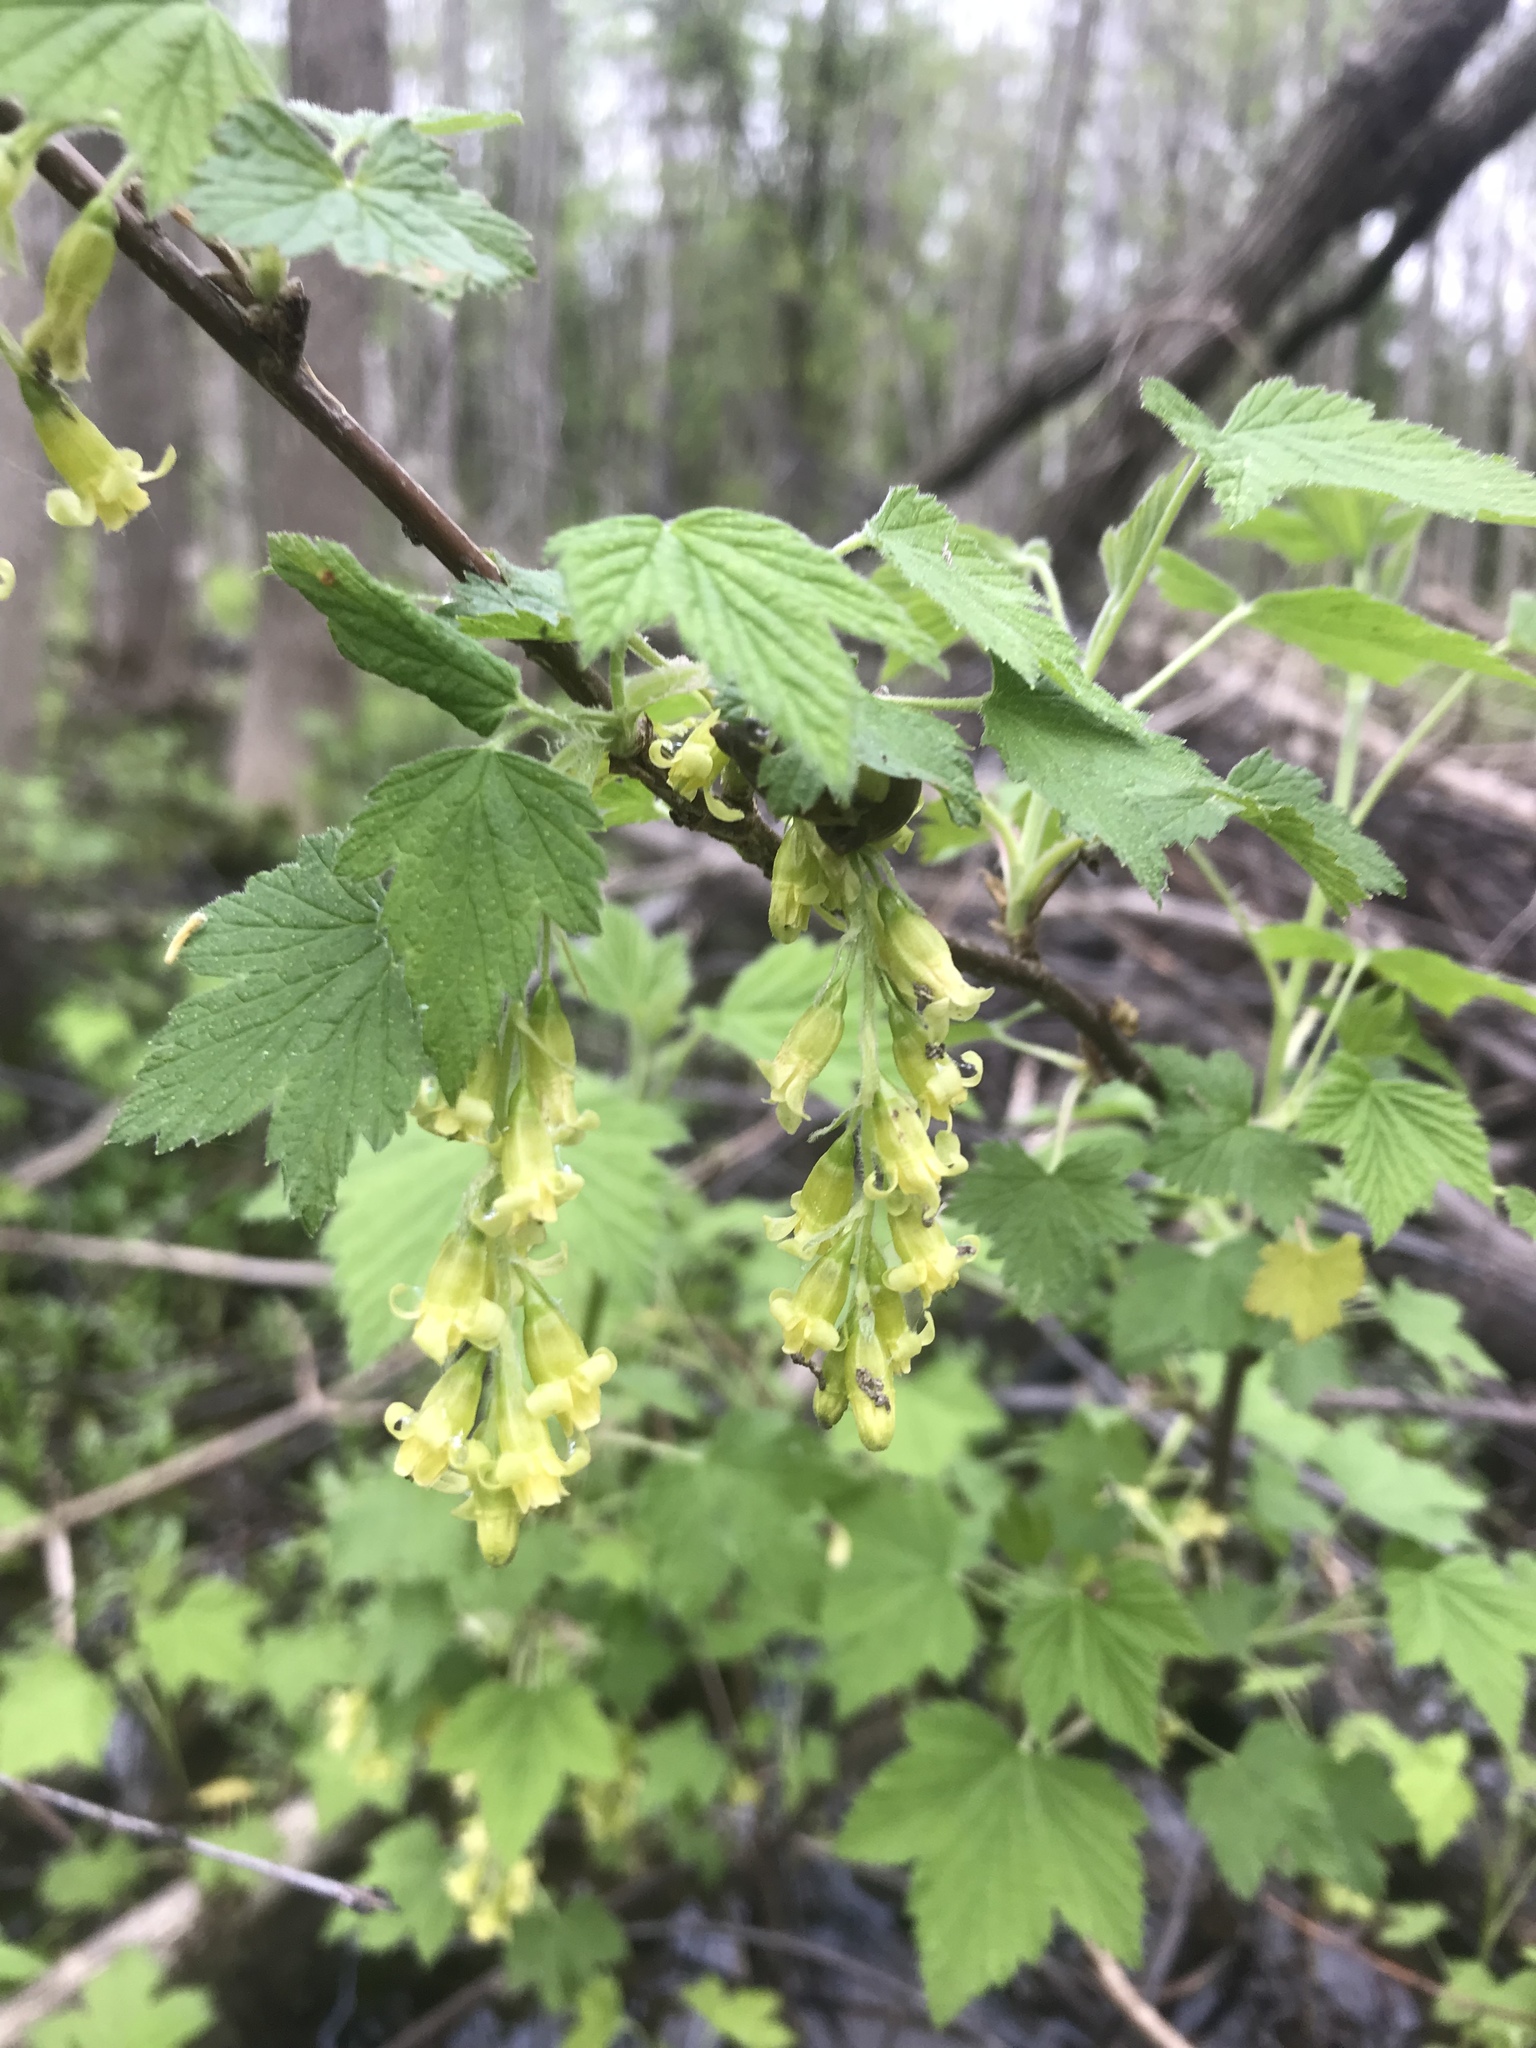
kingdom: Plantae
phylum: Tracheophyta
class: Magnoliopsida
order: Saxifragales
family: Grossulariaceae
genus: Ribes
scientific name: Ribes americanum
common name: American black currant
